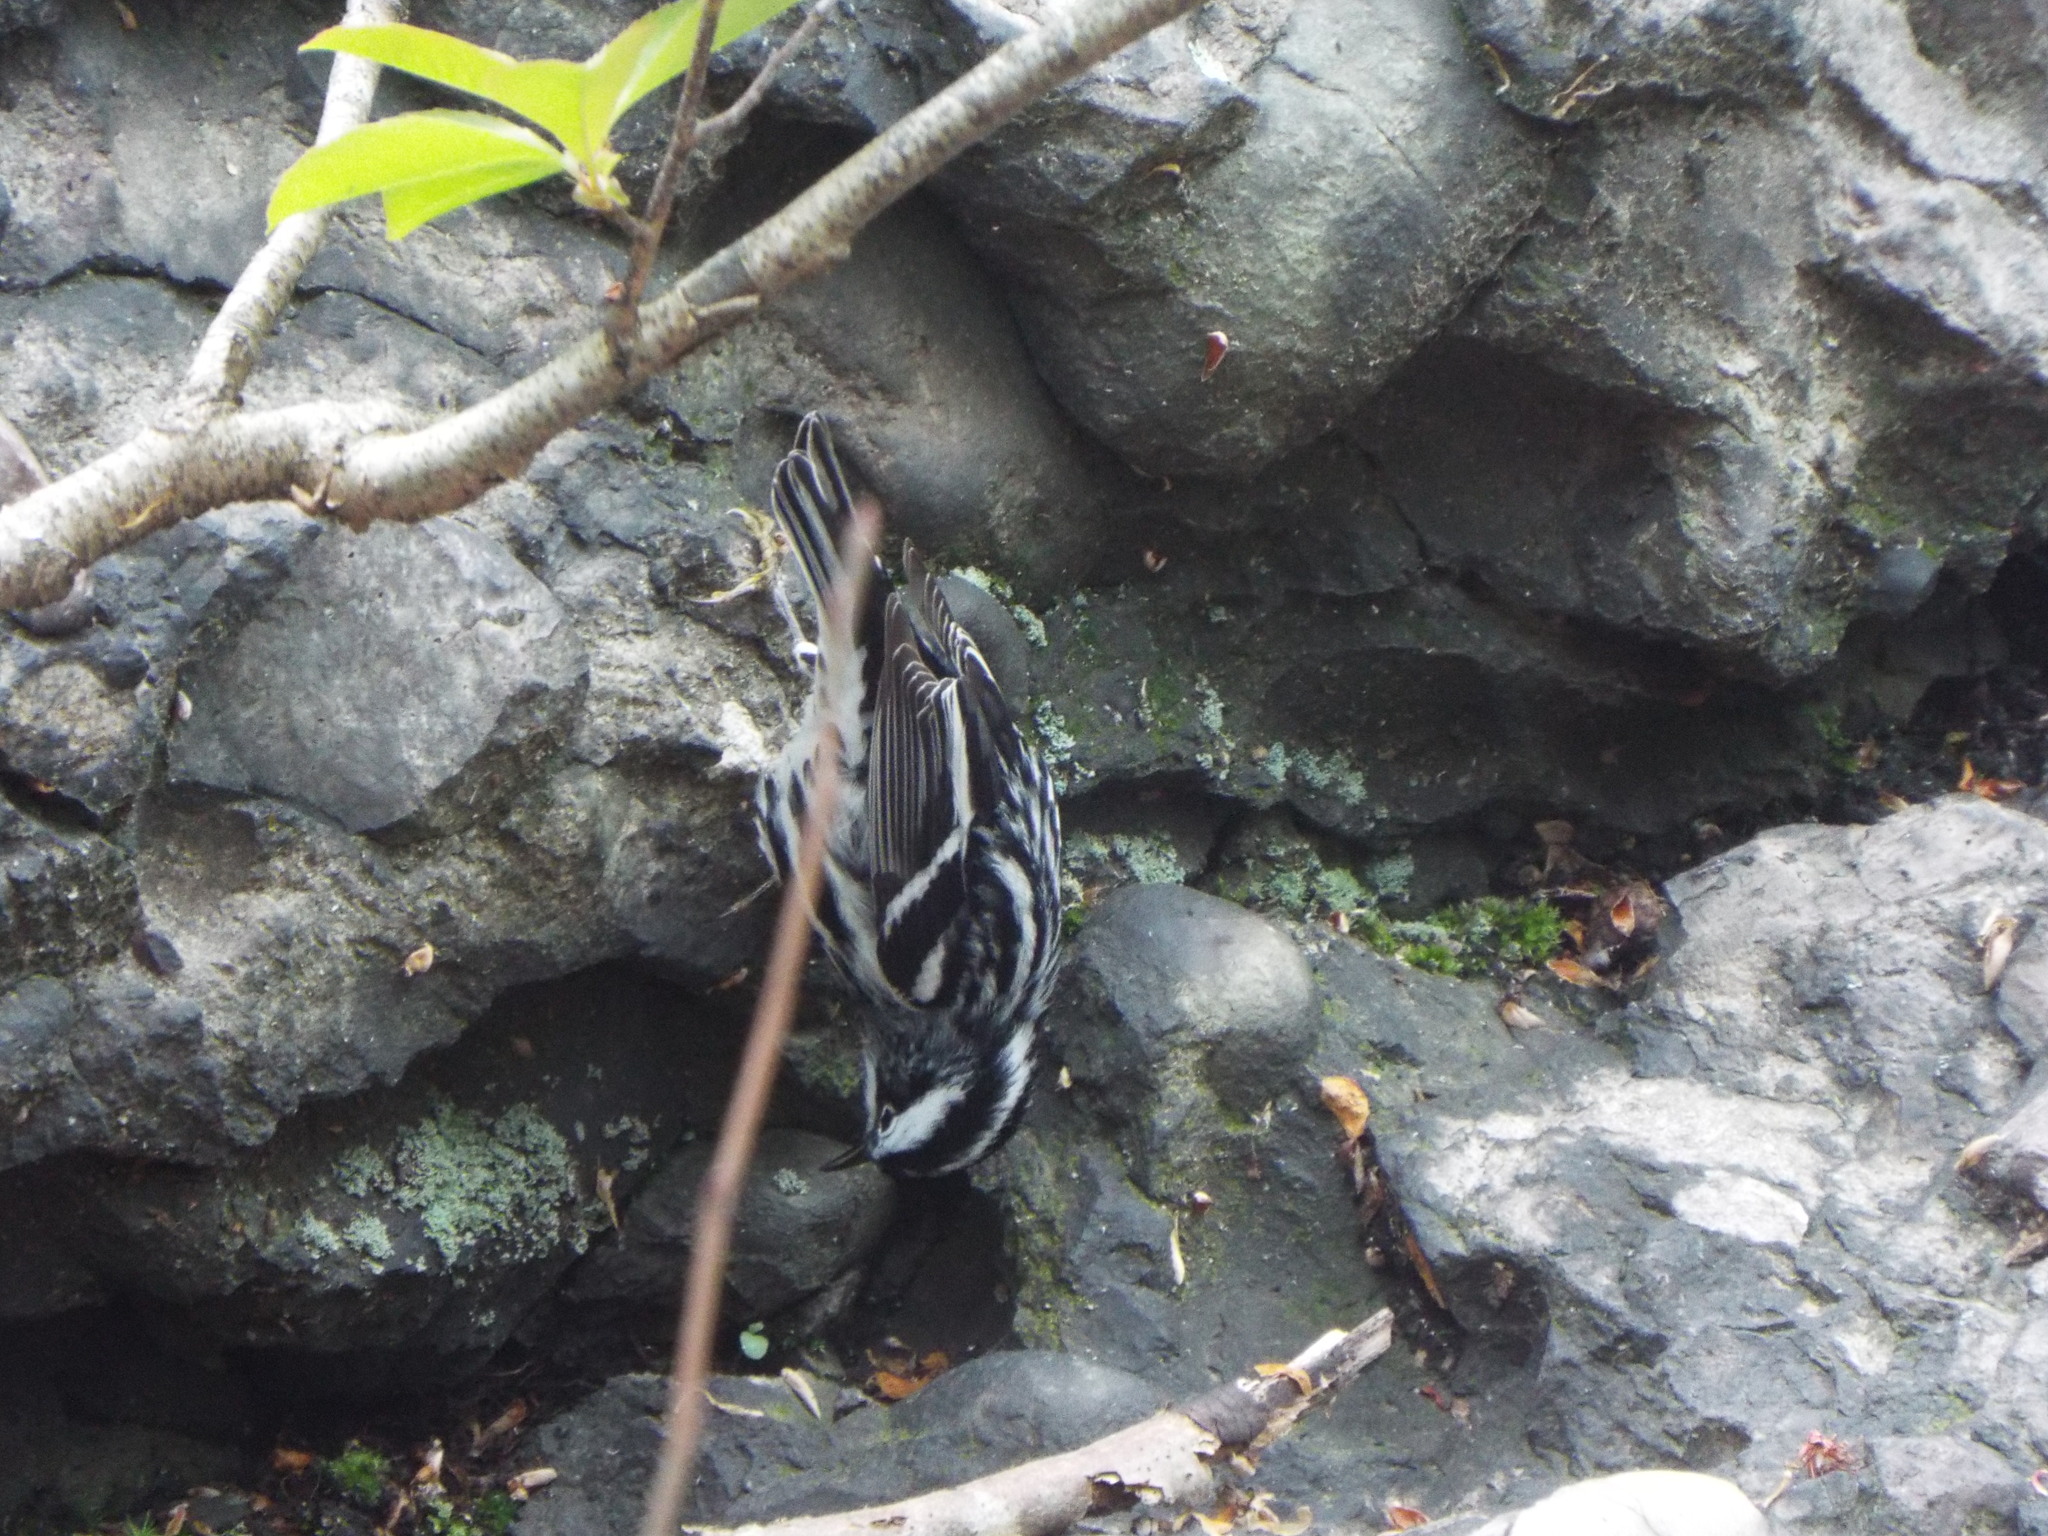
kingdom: Animalia
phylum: Chordata
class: Aves
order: Passeriformes
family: Parulidae
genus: Mniotilta
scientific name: Mniotilta varia
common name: Black-and-white warbler
